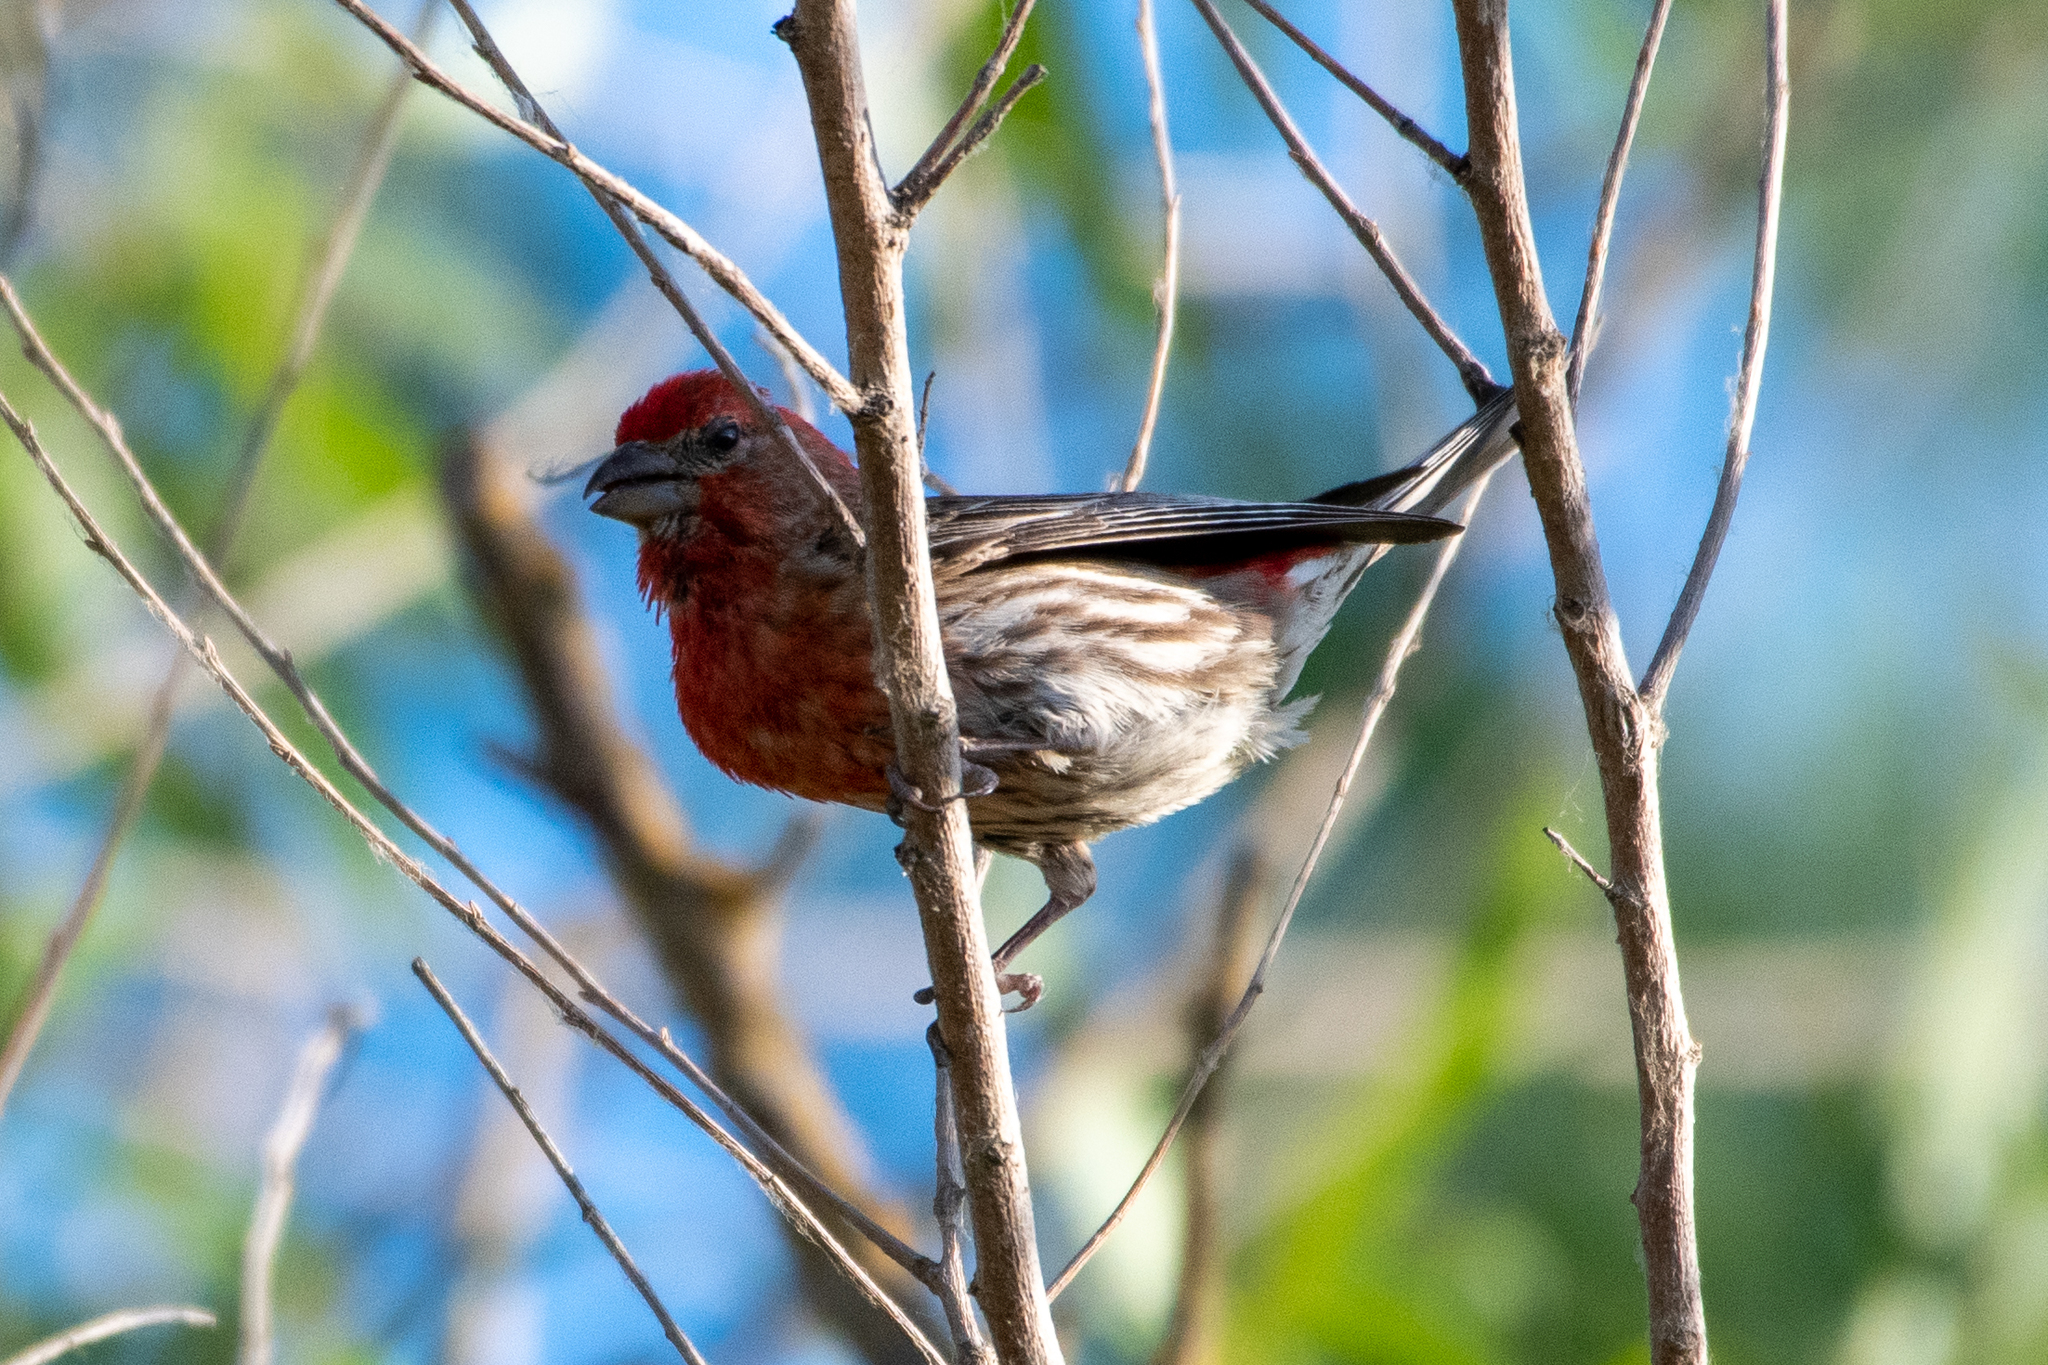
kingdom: Animalia
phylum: Chordata
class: Aves
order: Passeriformes
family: Fringillidae
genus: Haemorhous
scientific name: Haemorhous mexicanus
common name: House finch
